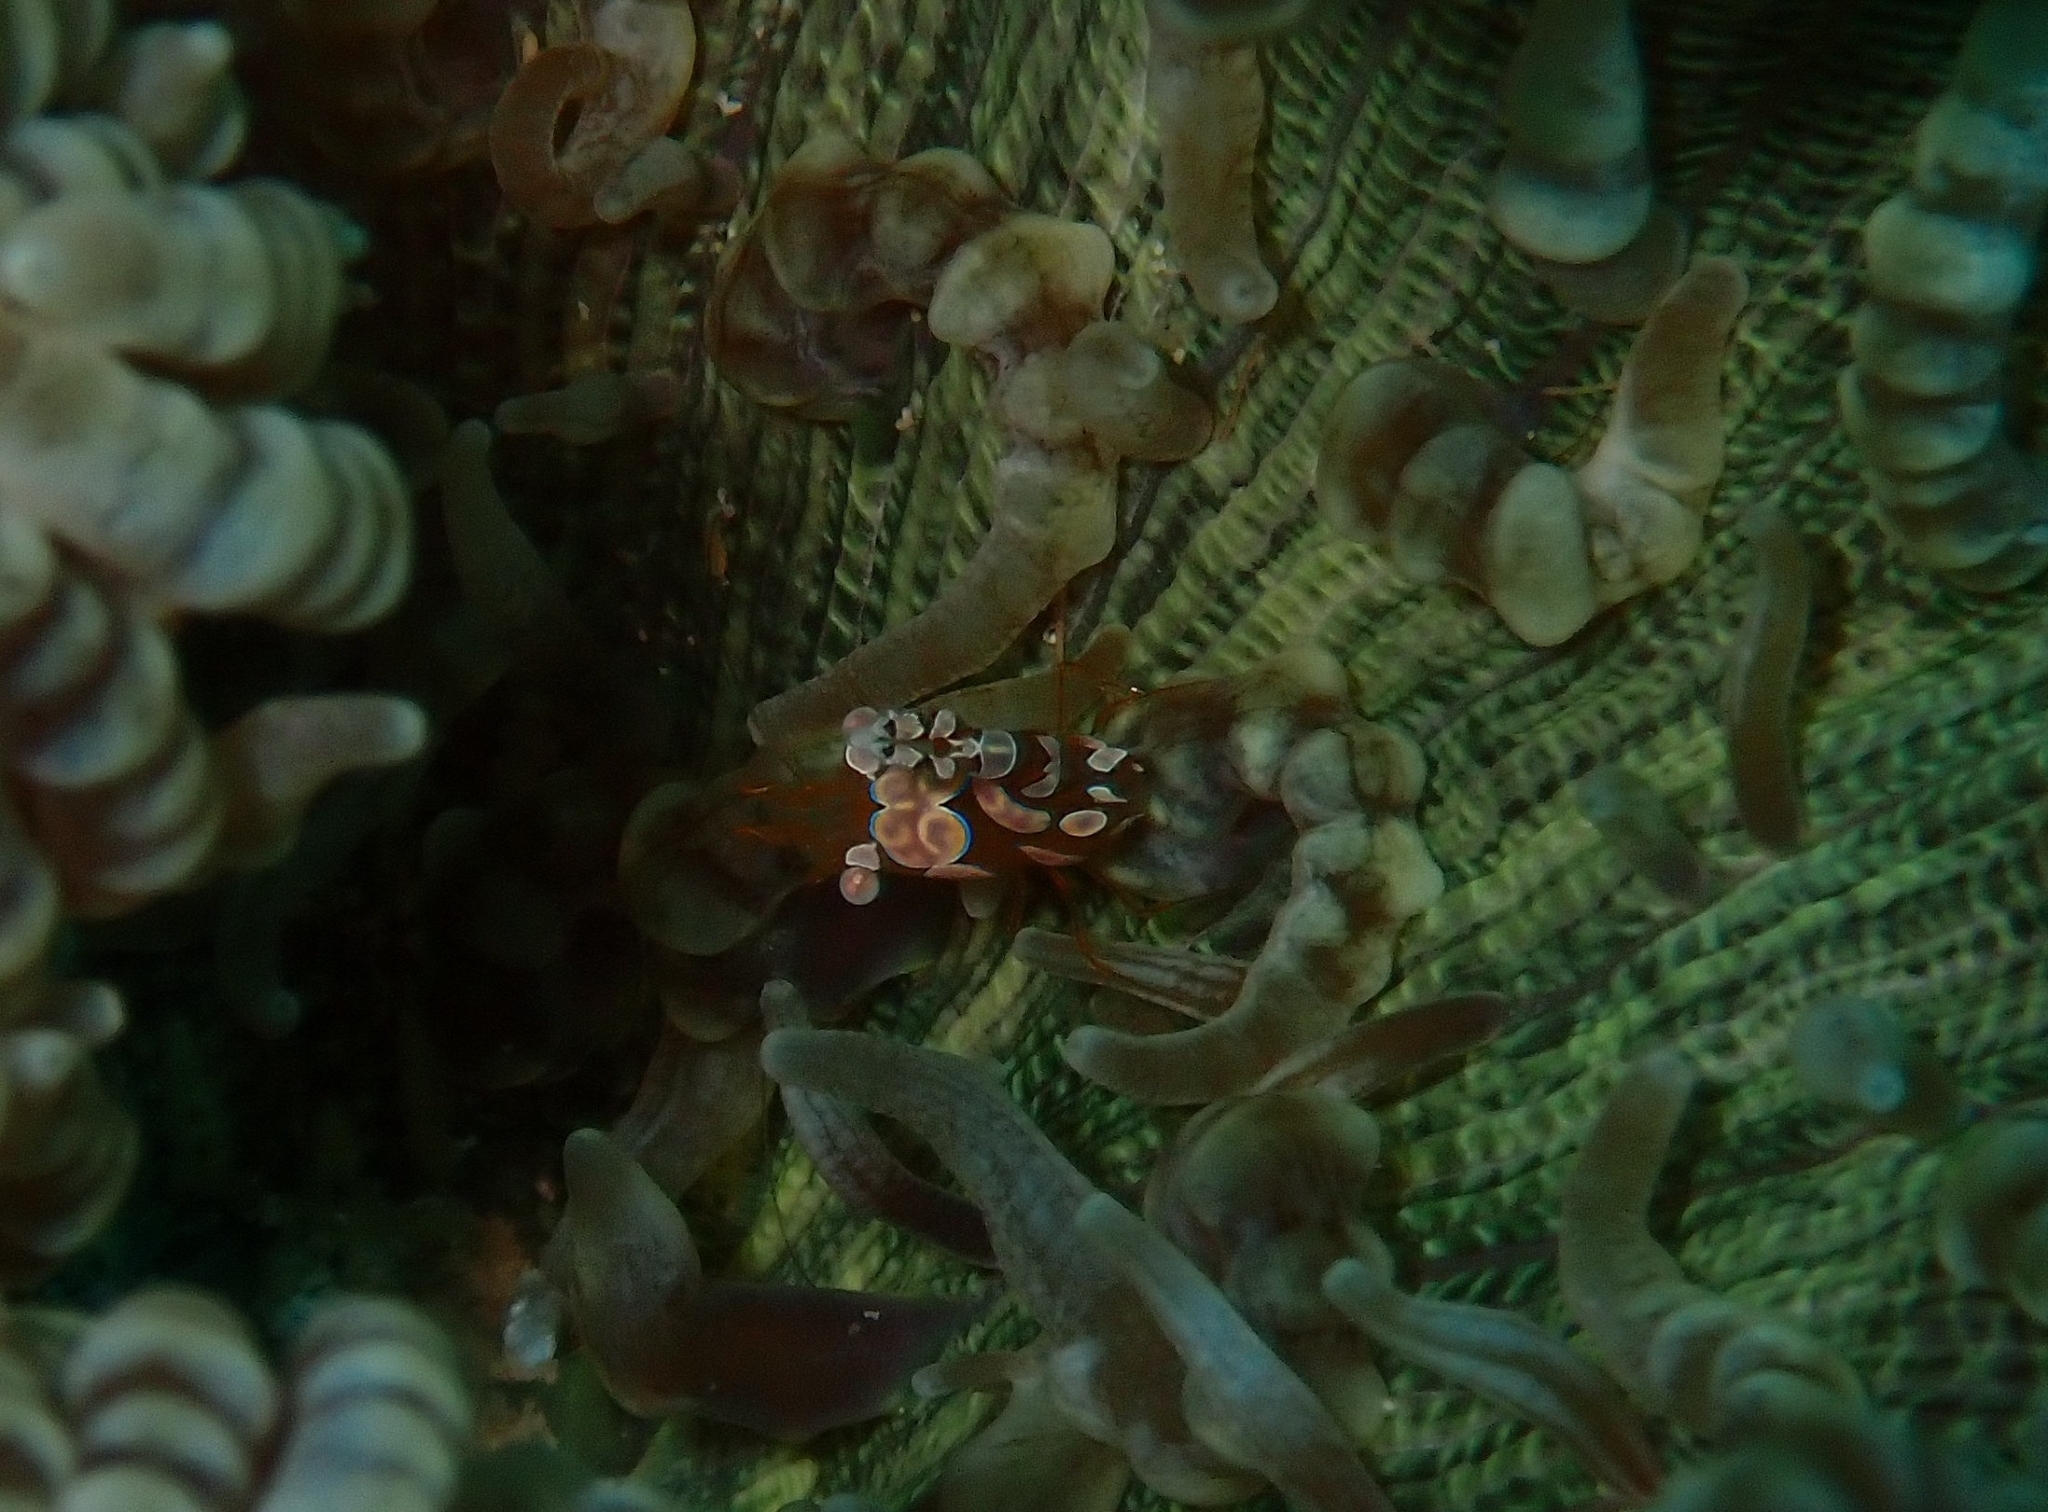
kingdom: Animalia
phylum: Arthropoda
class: Malacostraca
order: Decapoda
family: Thoridae
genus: Thor
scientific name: Thor amboinensis
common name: Squat anemone shrimp
